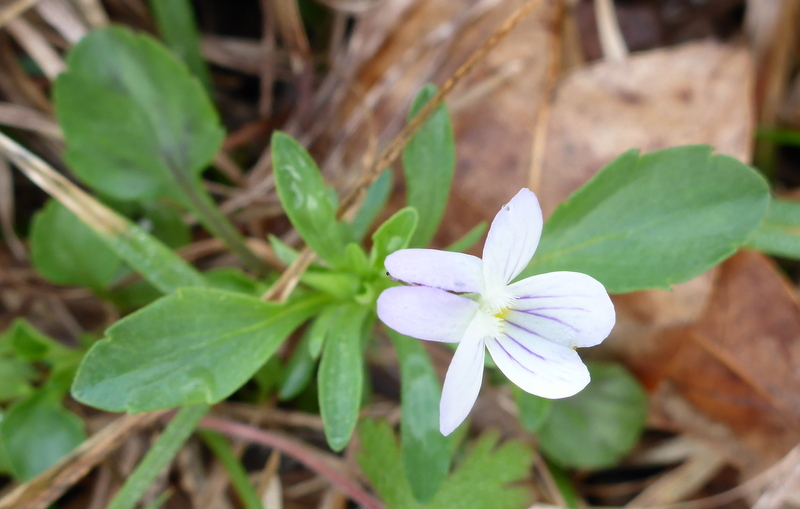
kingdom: Plantae
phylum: Tracheophyta
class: Magnoliopsida
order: Malpighiales
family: Violaceae
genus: Viola
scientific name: Viola rafinesquei
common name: American field pansy
